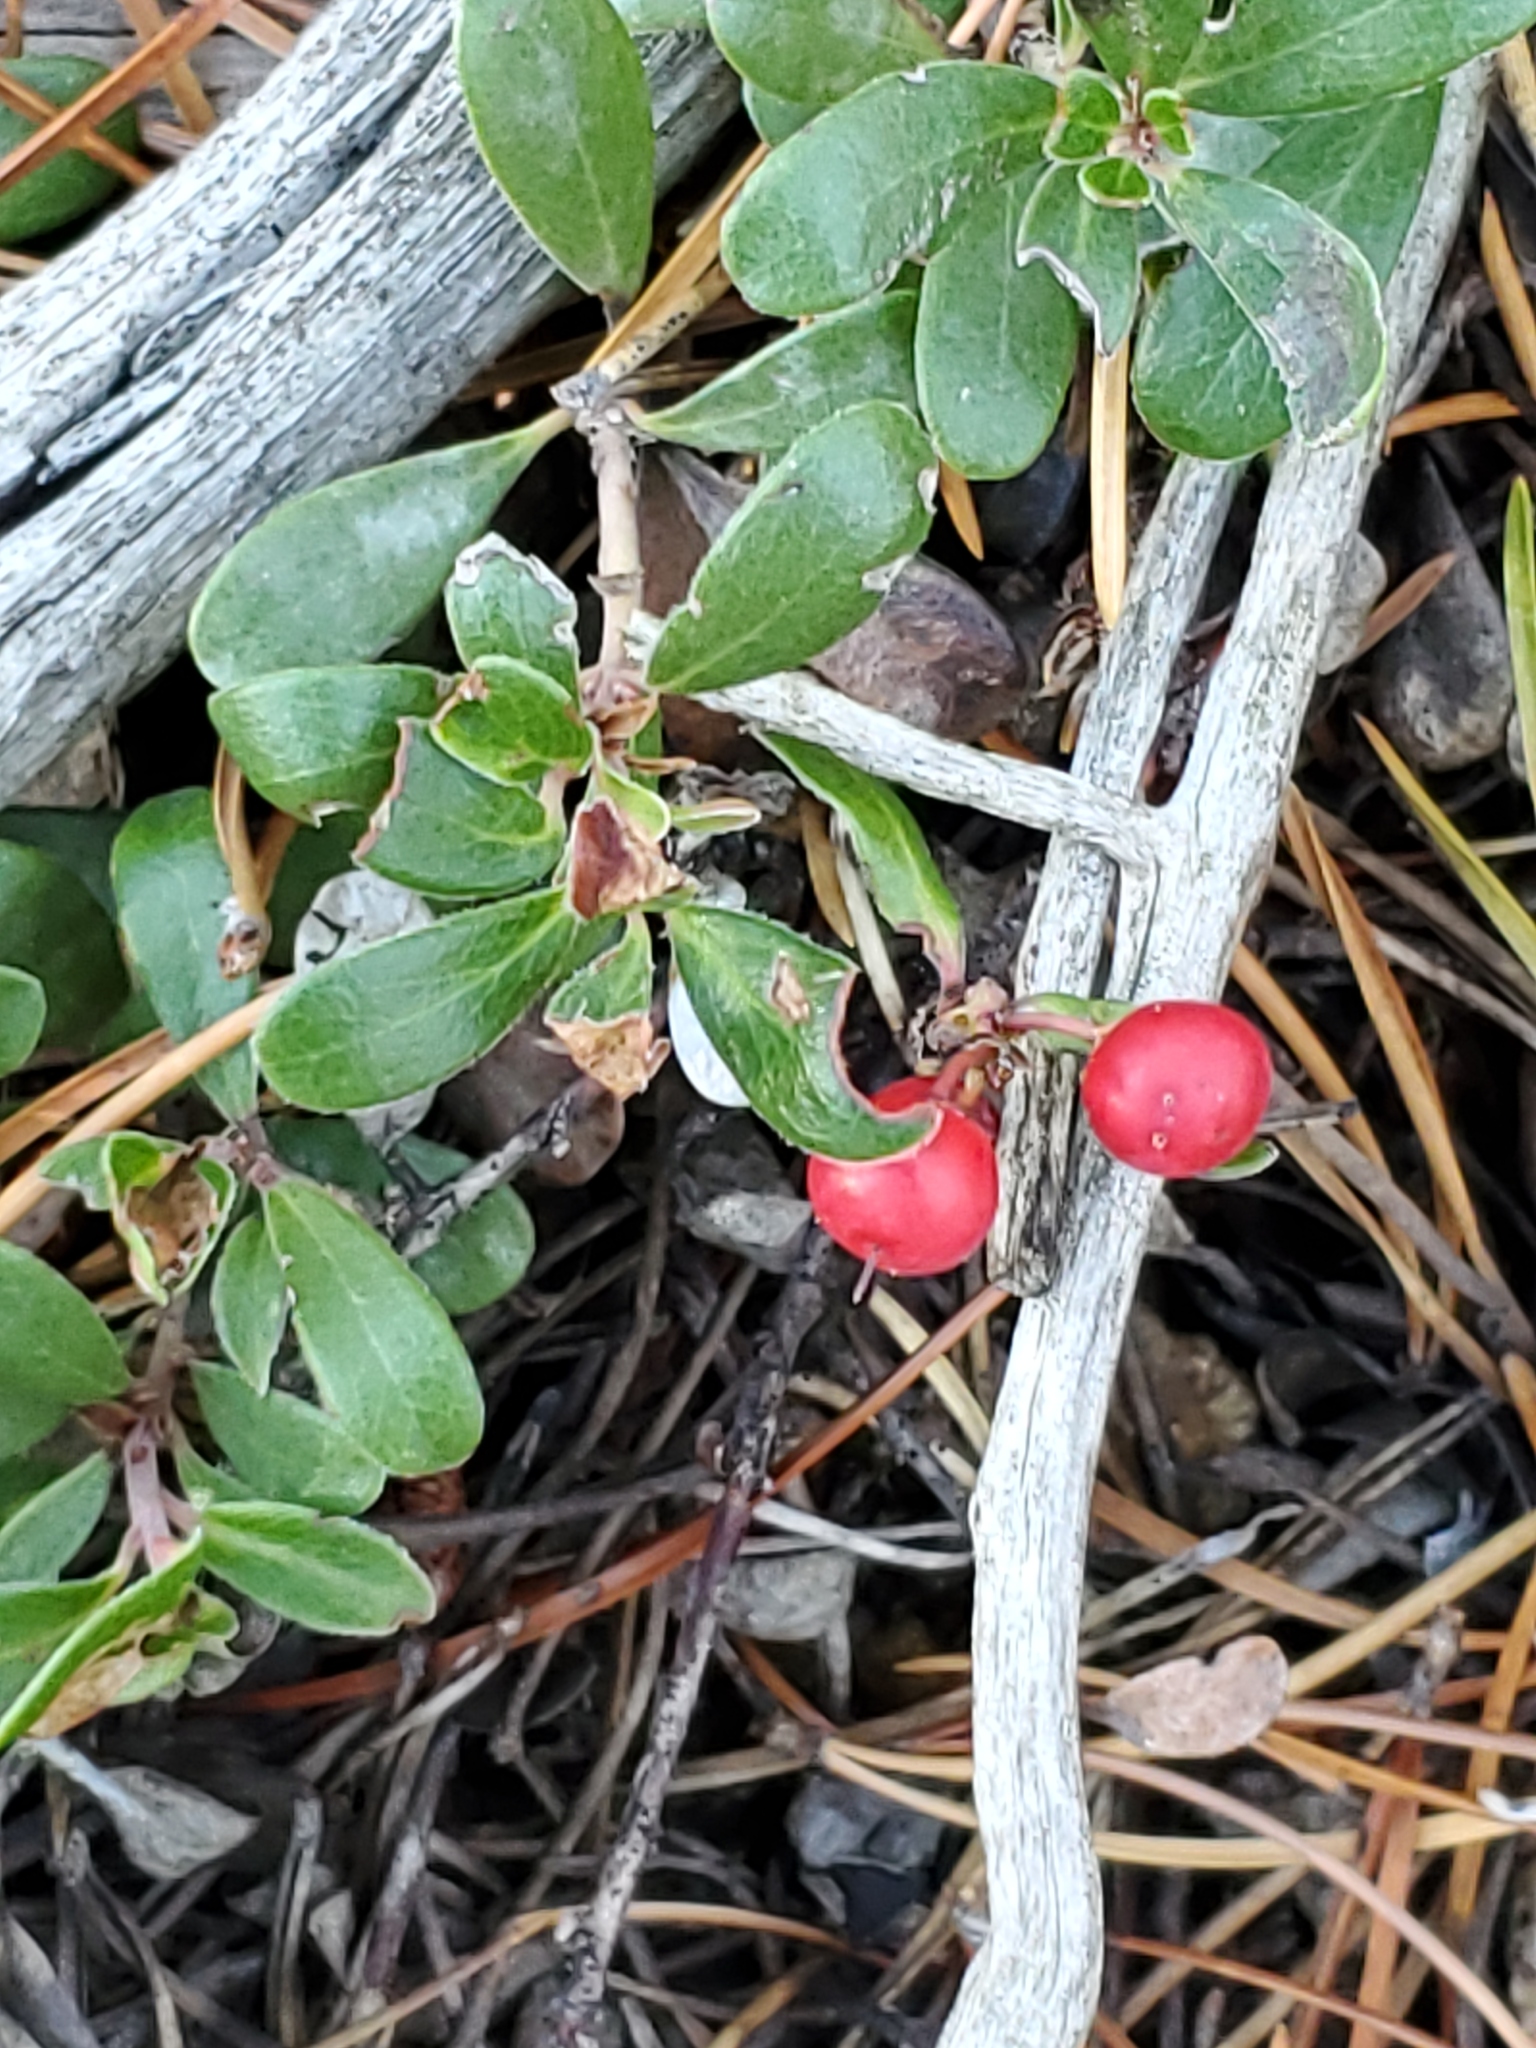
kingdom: Plantae
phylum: Tracheophyta
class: Magnoliopsida
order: Ericales
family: Ericaceae
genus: Arctostaphylos
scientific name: Arctostaphylos uva-ursi
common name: Bearberry
